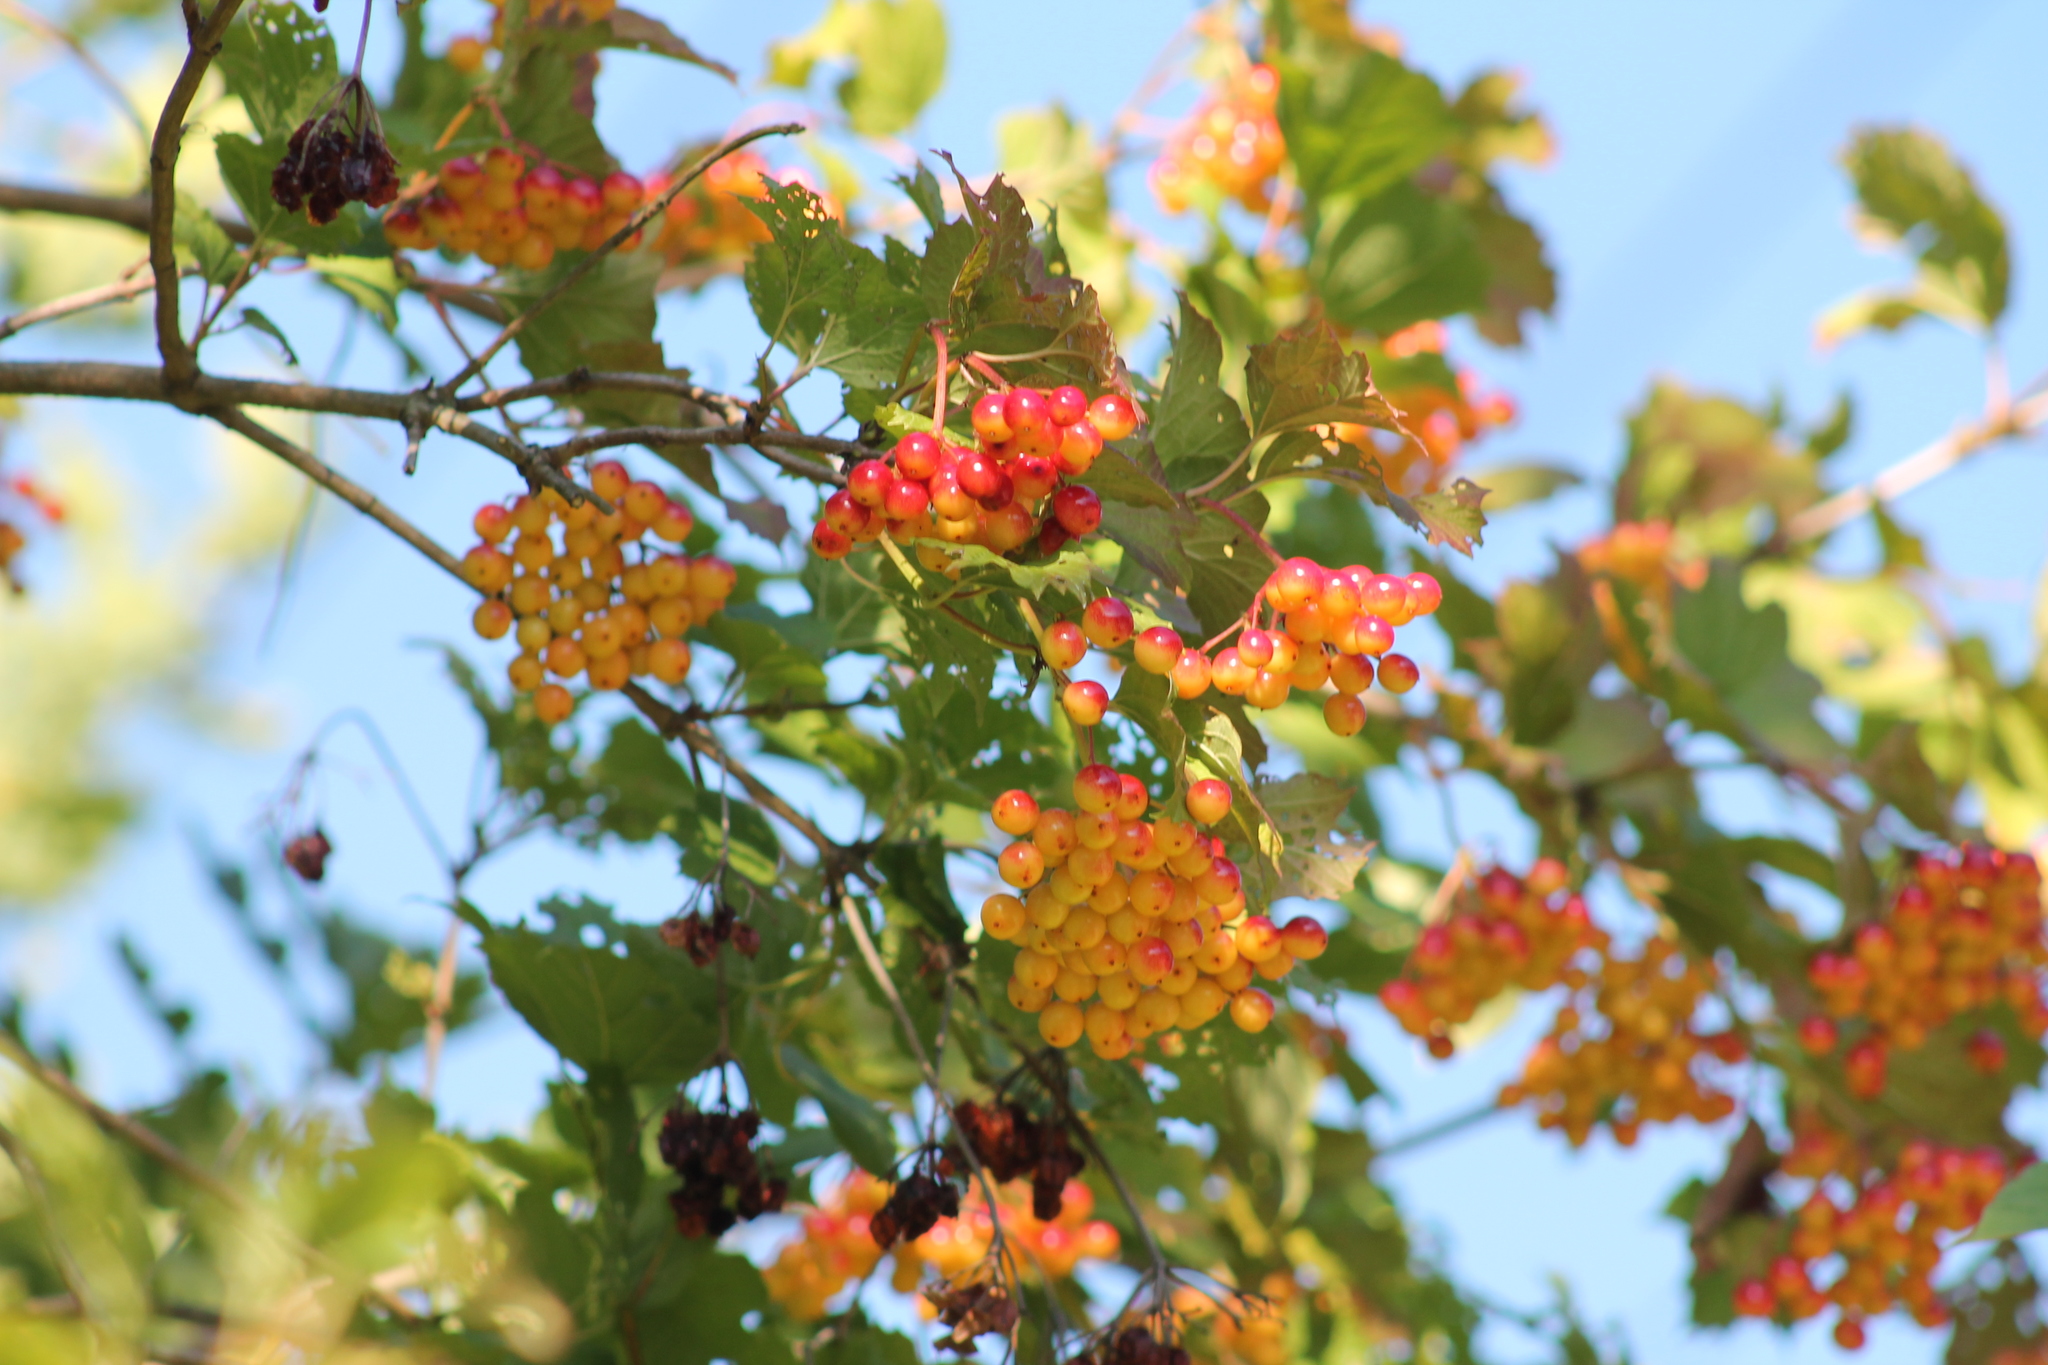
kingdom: Plantae
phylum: Tracheophyta
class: Magnoliopsida
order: Dipsacales
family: Viburnaceae
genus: Viburnum
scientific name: Viburnum opulus
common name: Guelder-rose
